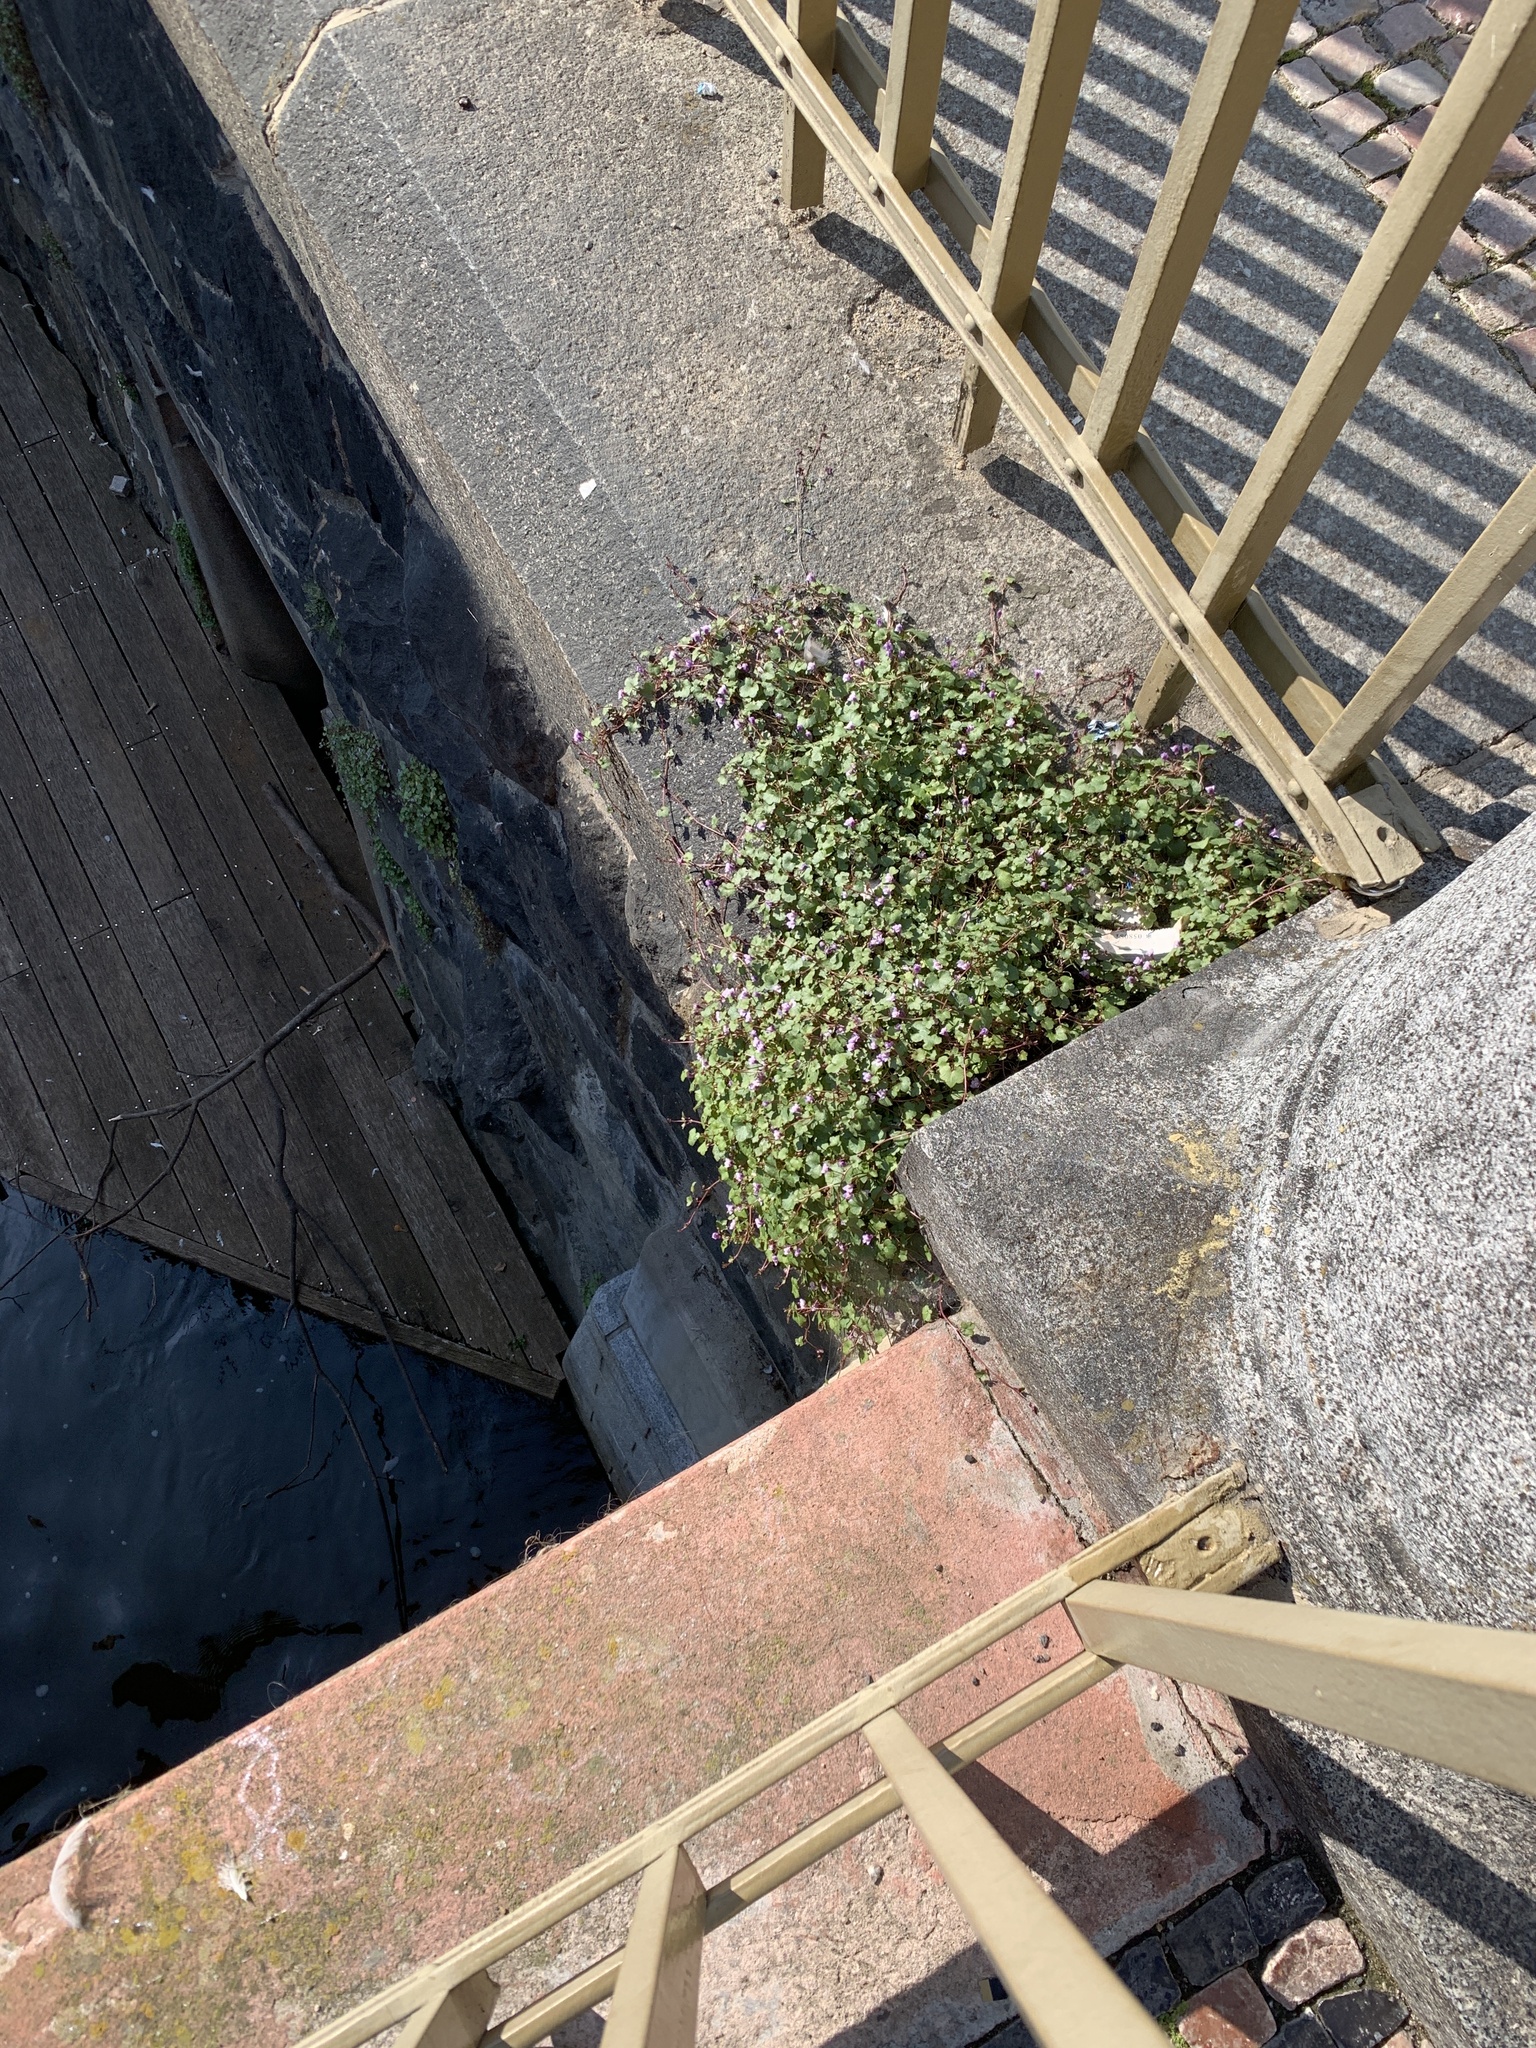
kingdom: Plantae
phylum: Tracheophyta
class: Magnoliopsida
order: Lamiales
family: Plantaginaceae
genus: Cymbalaria
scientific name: Cymbalaria muralis
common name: Ivy-leaved toadflax
